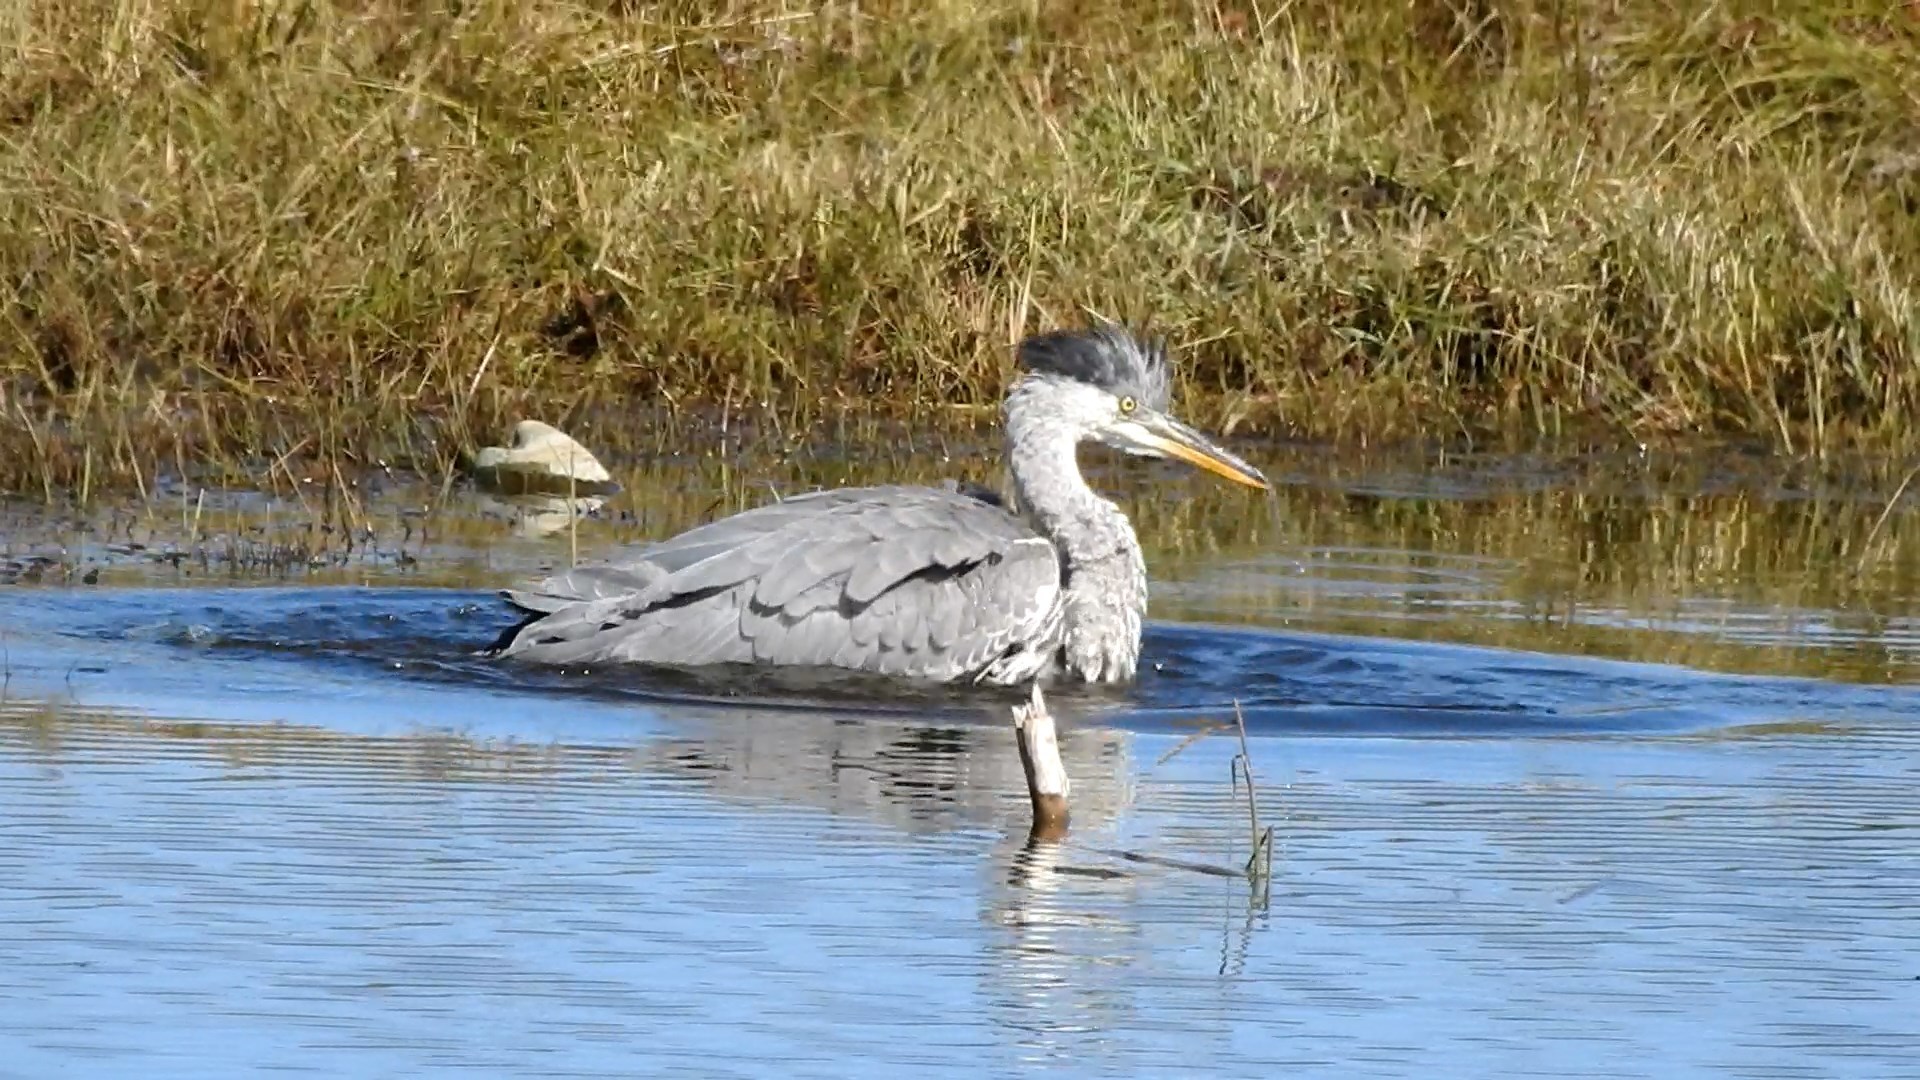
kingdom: Animalia
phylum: Chordata
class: Aves
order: Pelecaniformes
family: Ardeidae
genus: Ardea
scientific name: Ardea cinerea
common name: Grey heron
